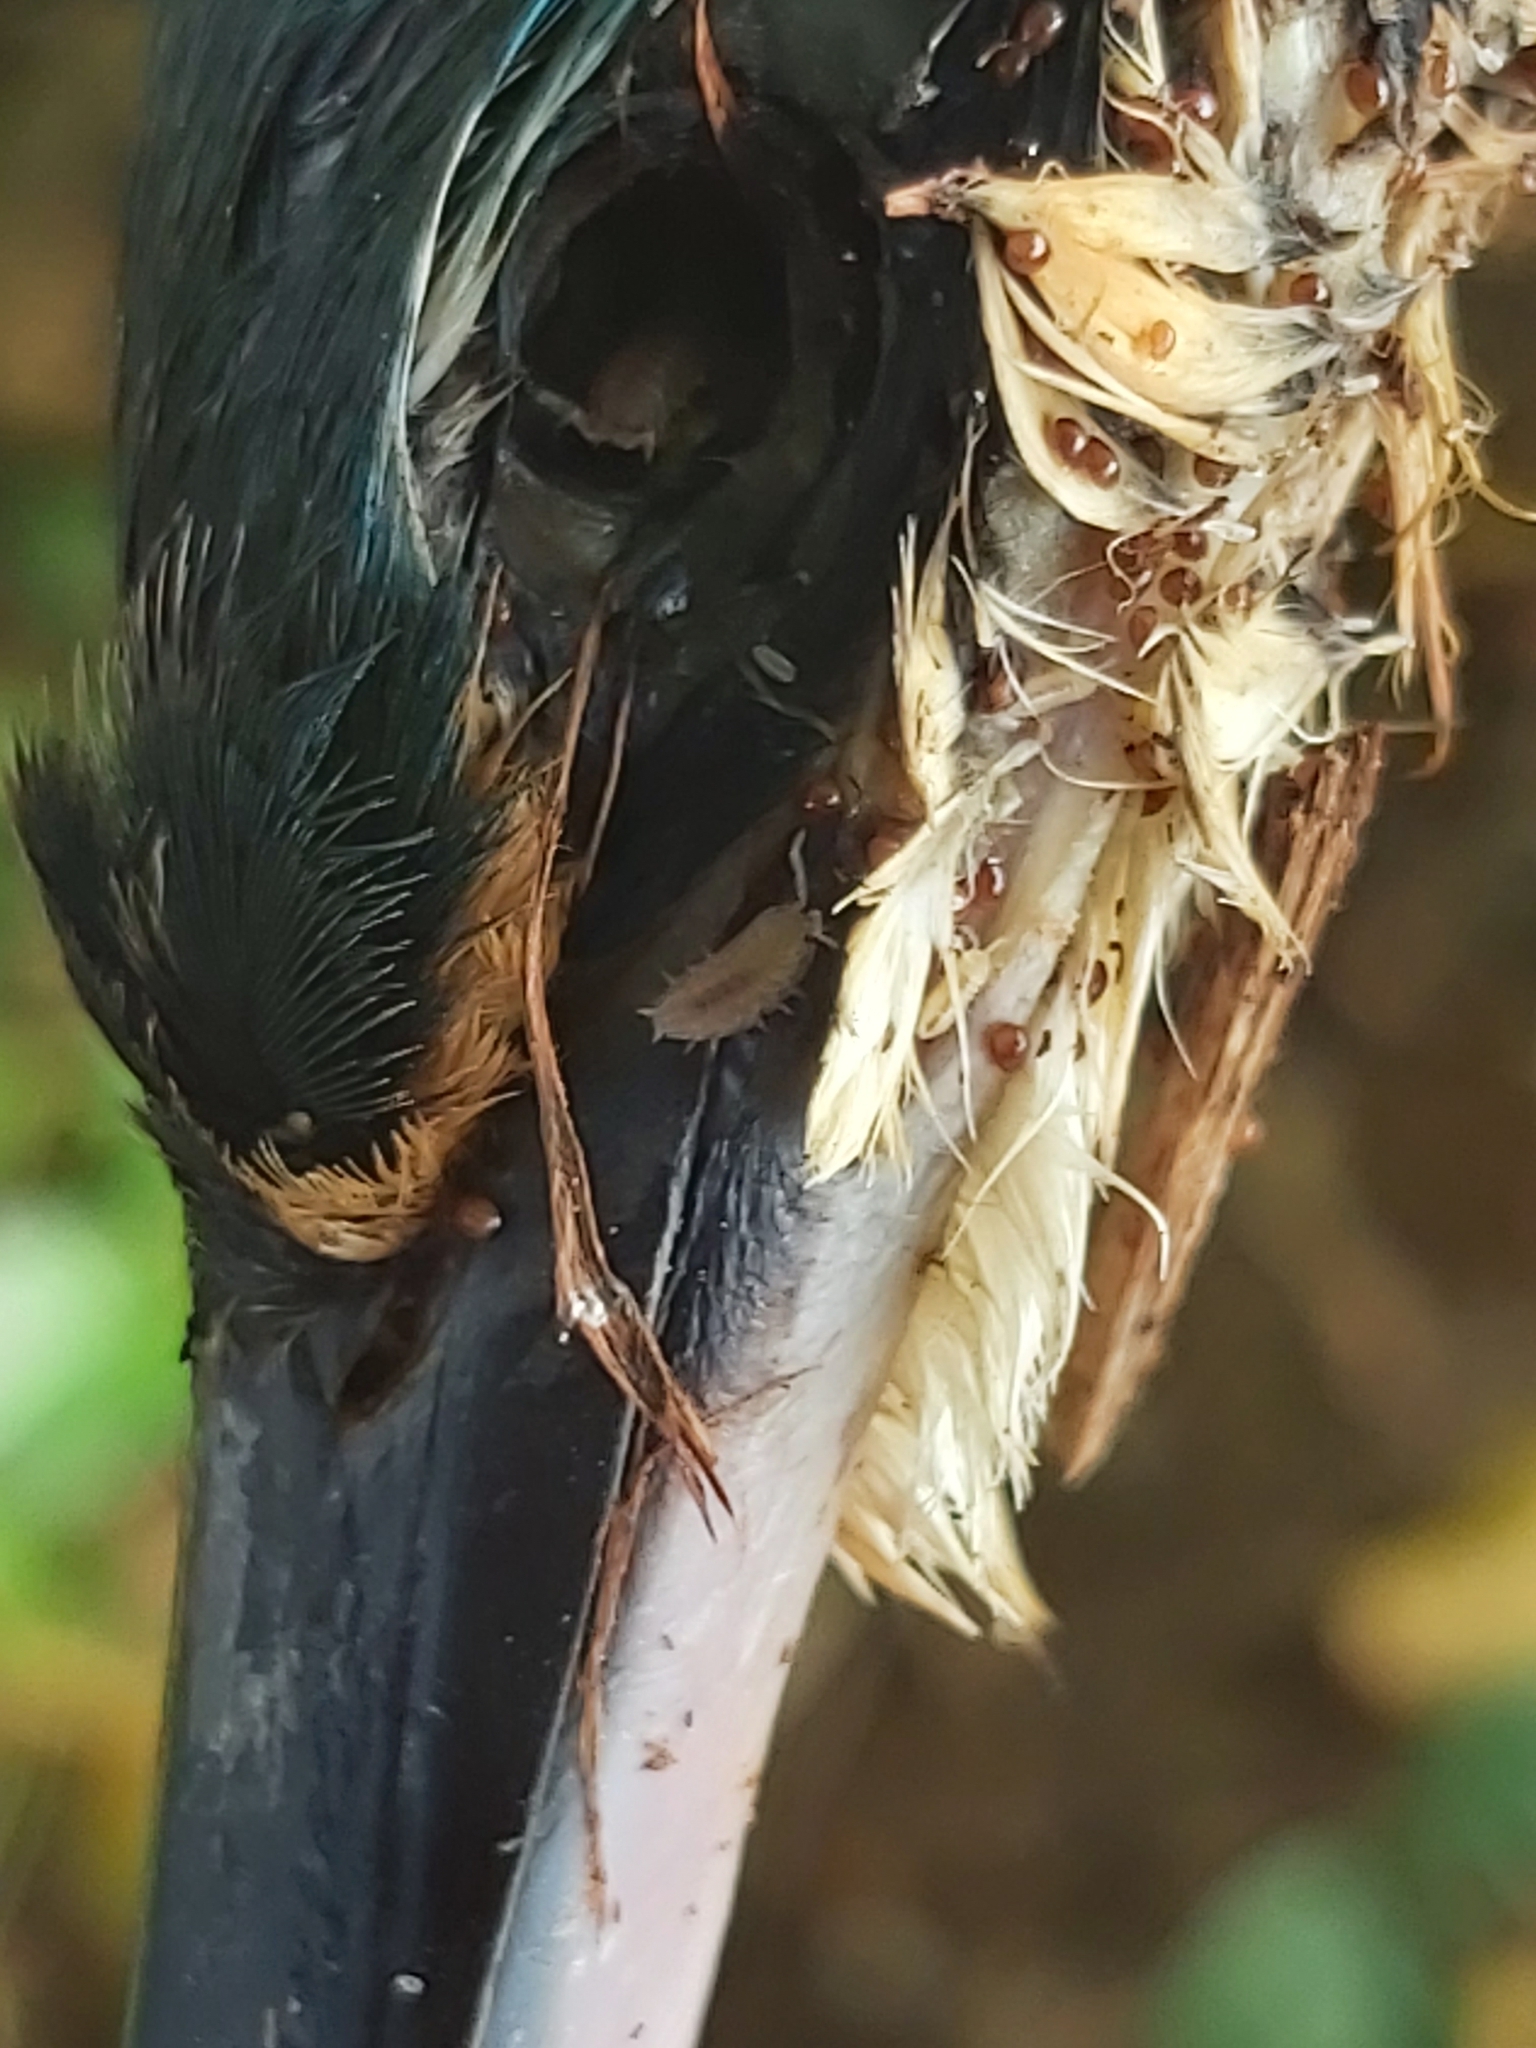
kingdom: Animalia
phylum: Arthropoda
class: Malacostraca
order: Isopoda
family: Trachelipodidae
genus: Nagurus
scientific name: Nagurus cristatus
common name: Pillbug
